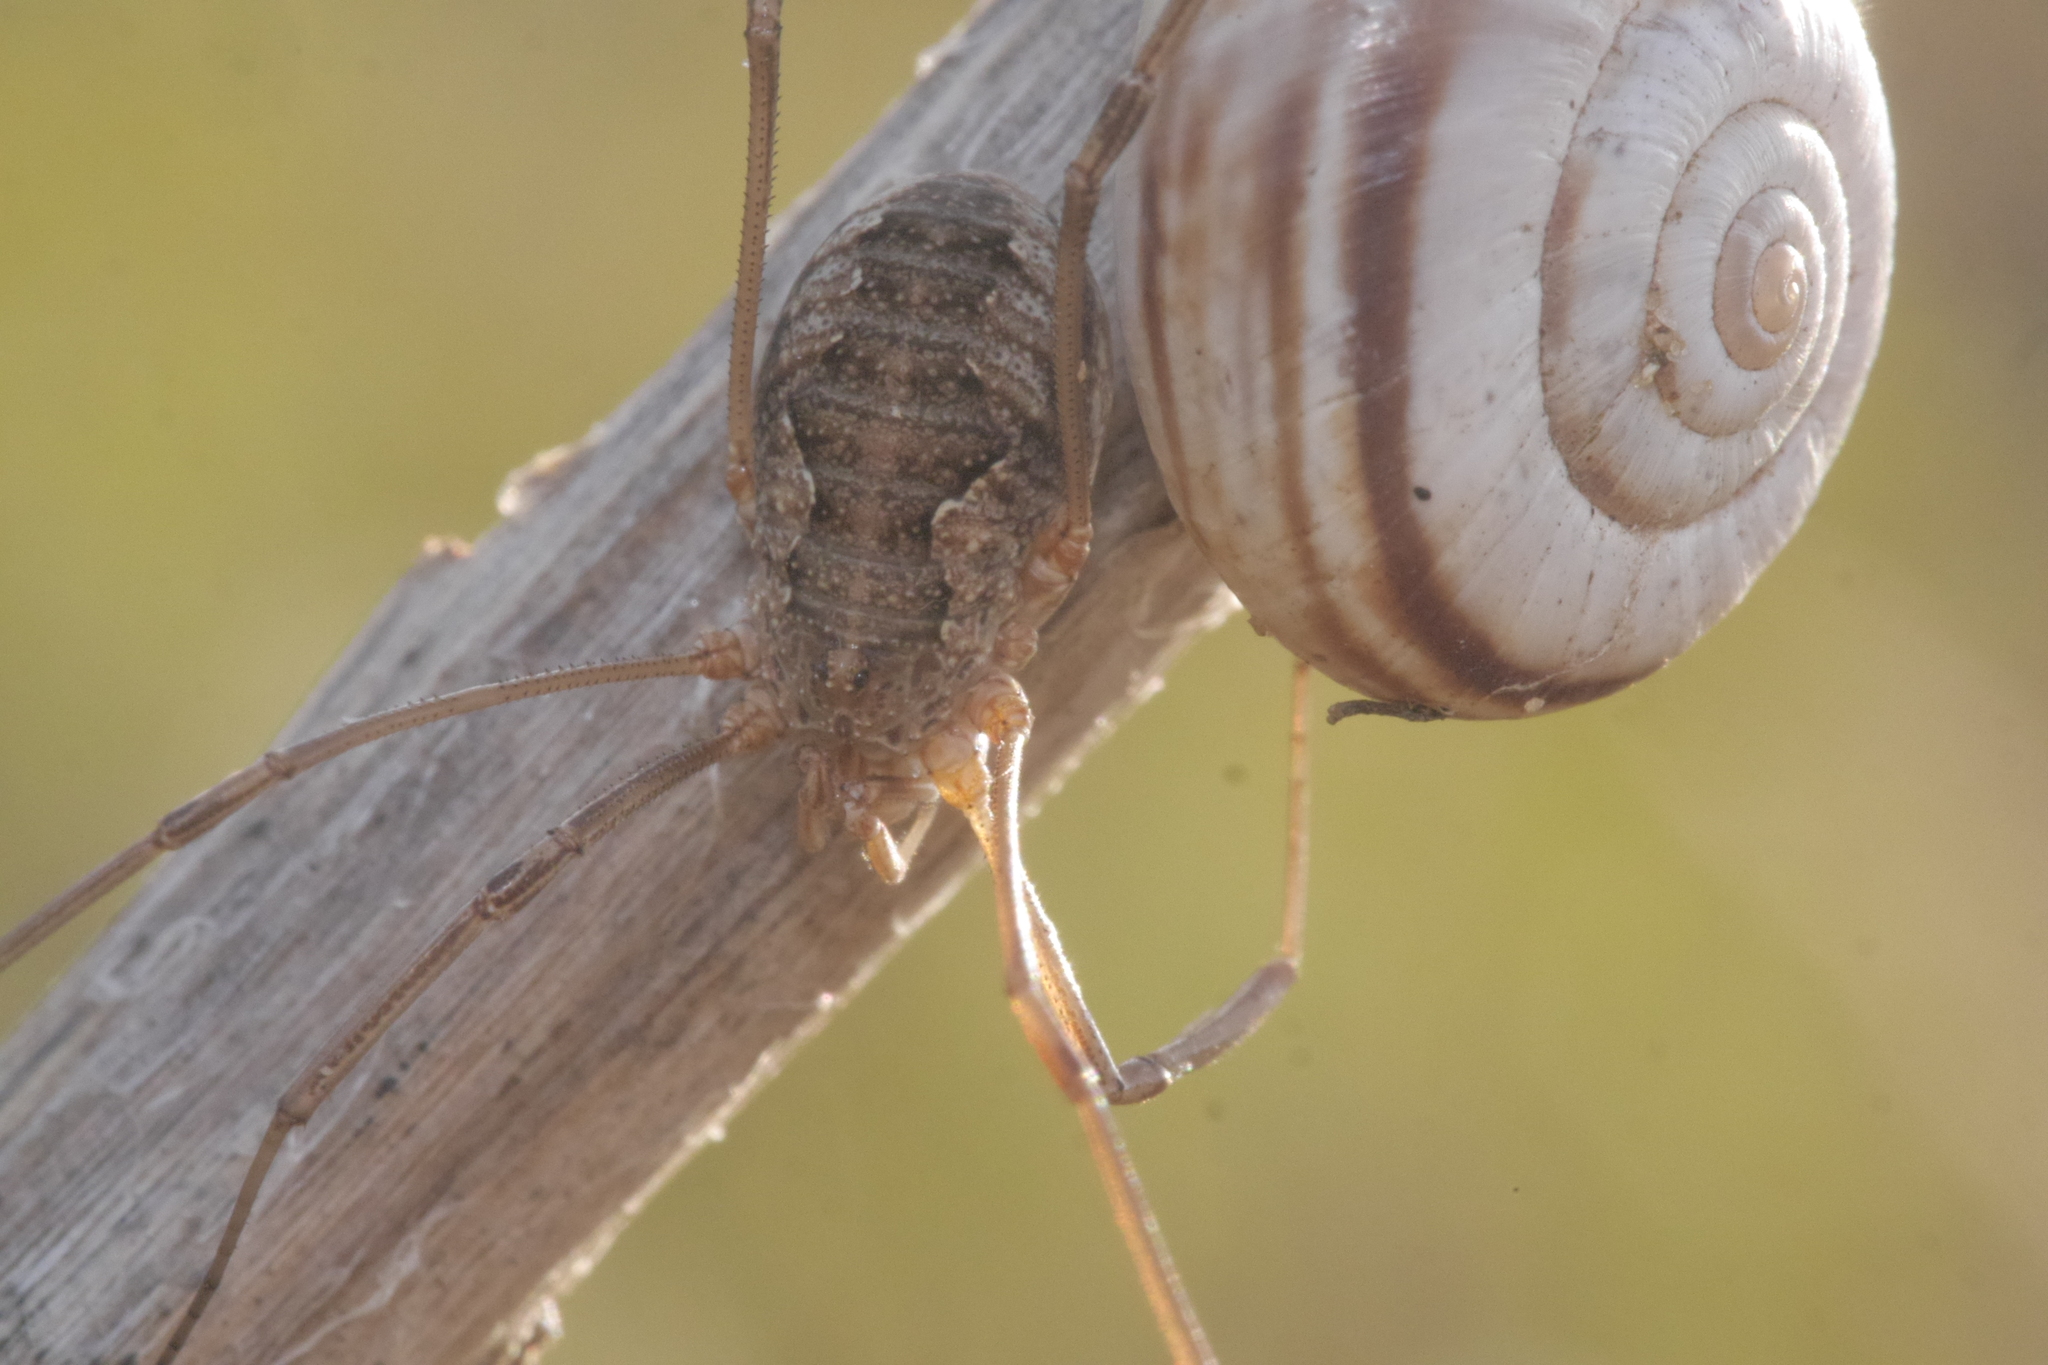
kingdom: Animalia
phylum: Arthropoda
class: Arachnida
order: Opiliones
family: Phalangiidae
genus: Phalangium
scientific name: Phalangium opilio
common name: Daddy longleg
